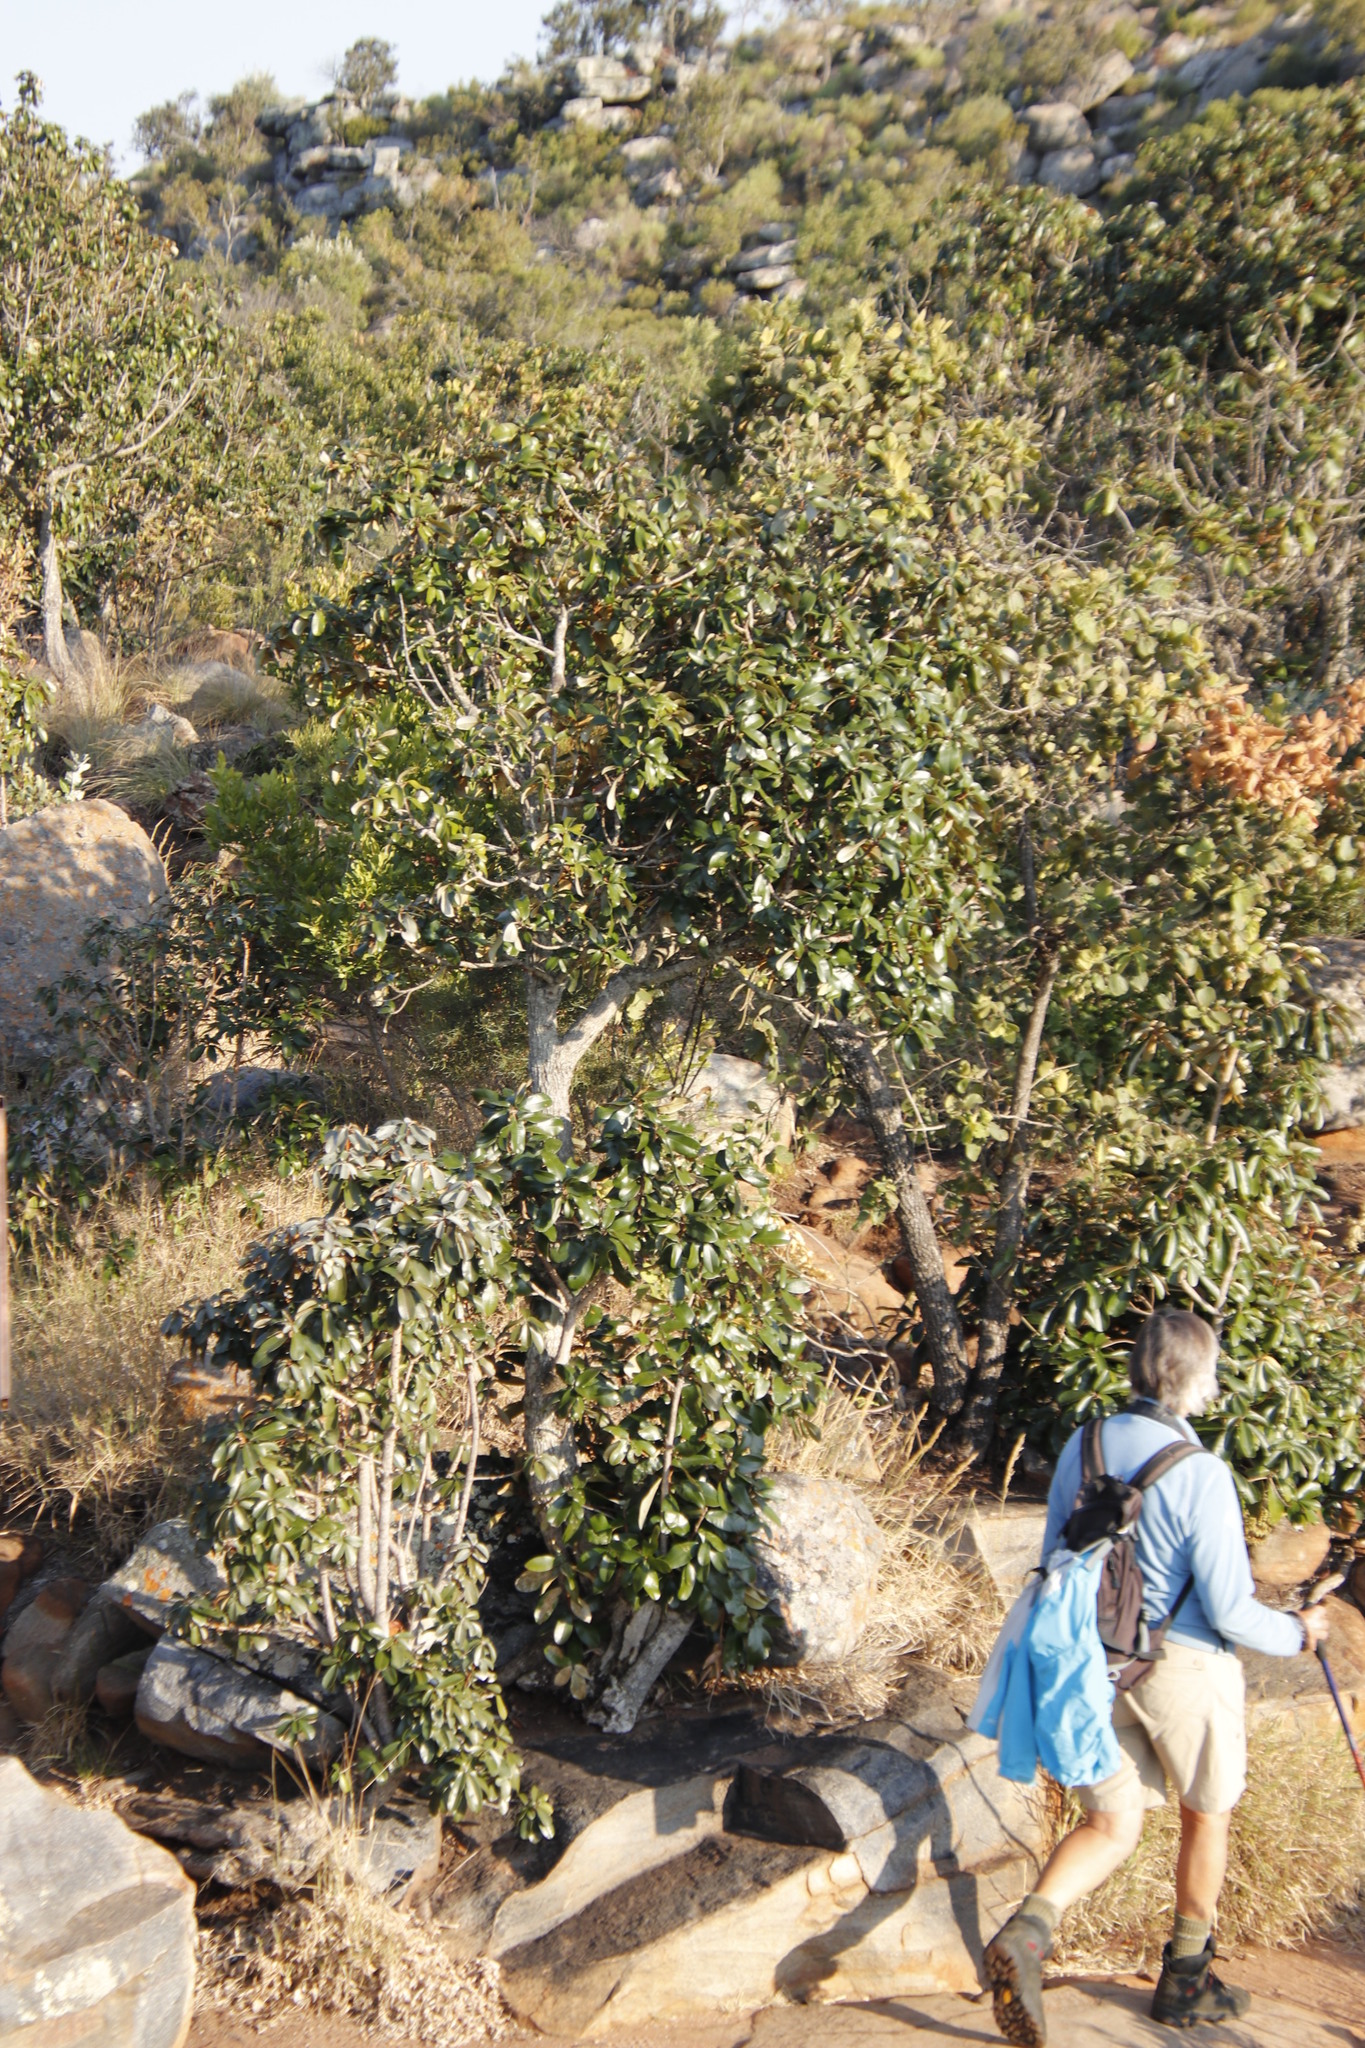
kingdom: Plantae
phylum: Tracheophyta
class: Magnoliopsida
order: Ericales
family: Sapotaceae
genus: Englerophytum
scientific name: Englerophytum magalismontanum
